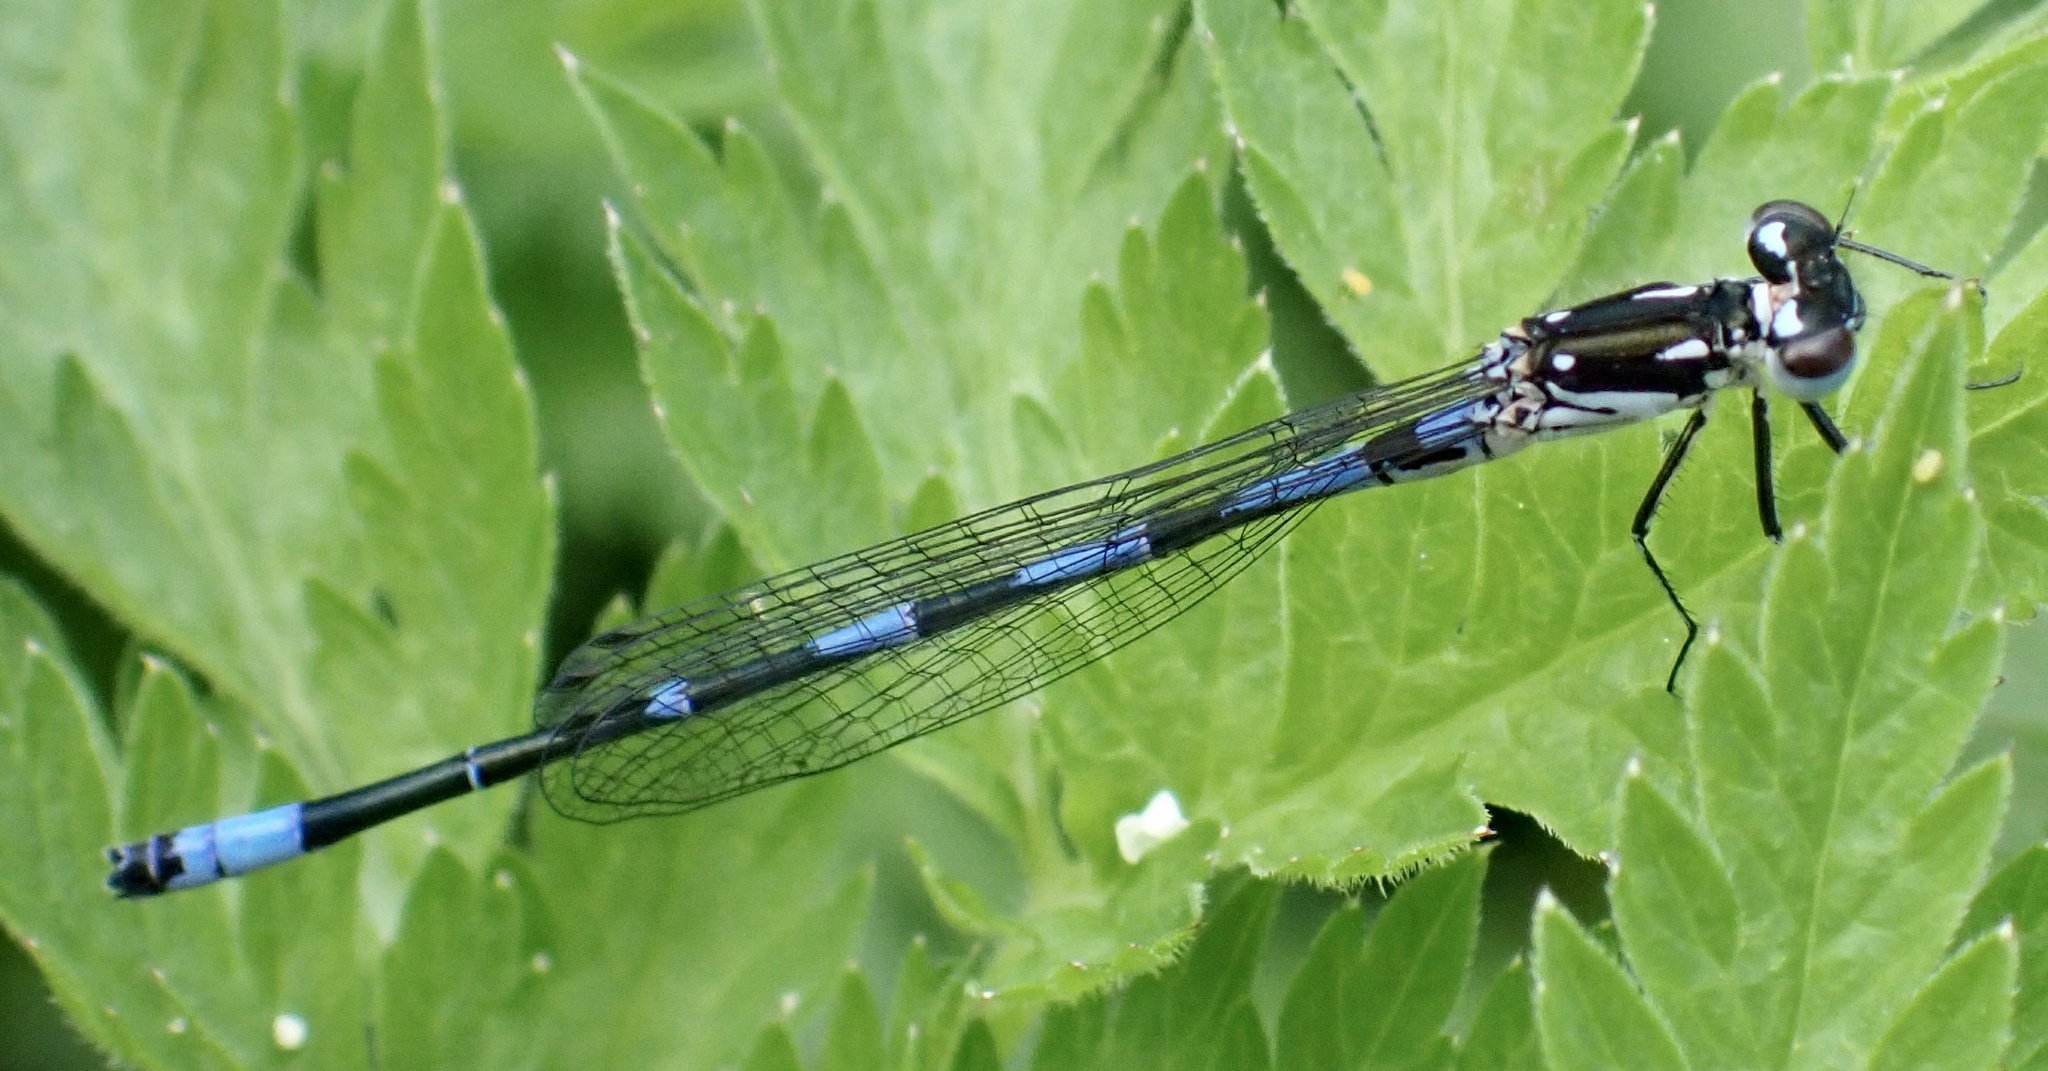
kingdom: Animalia
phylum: Arthropoda
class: Insecta
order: Odonata
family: Coenagrionidae
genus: Coenagrion
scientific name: Coenagrion pulchellum
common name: Variable bluet
